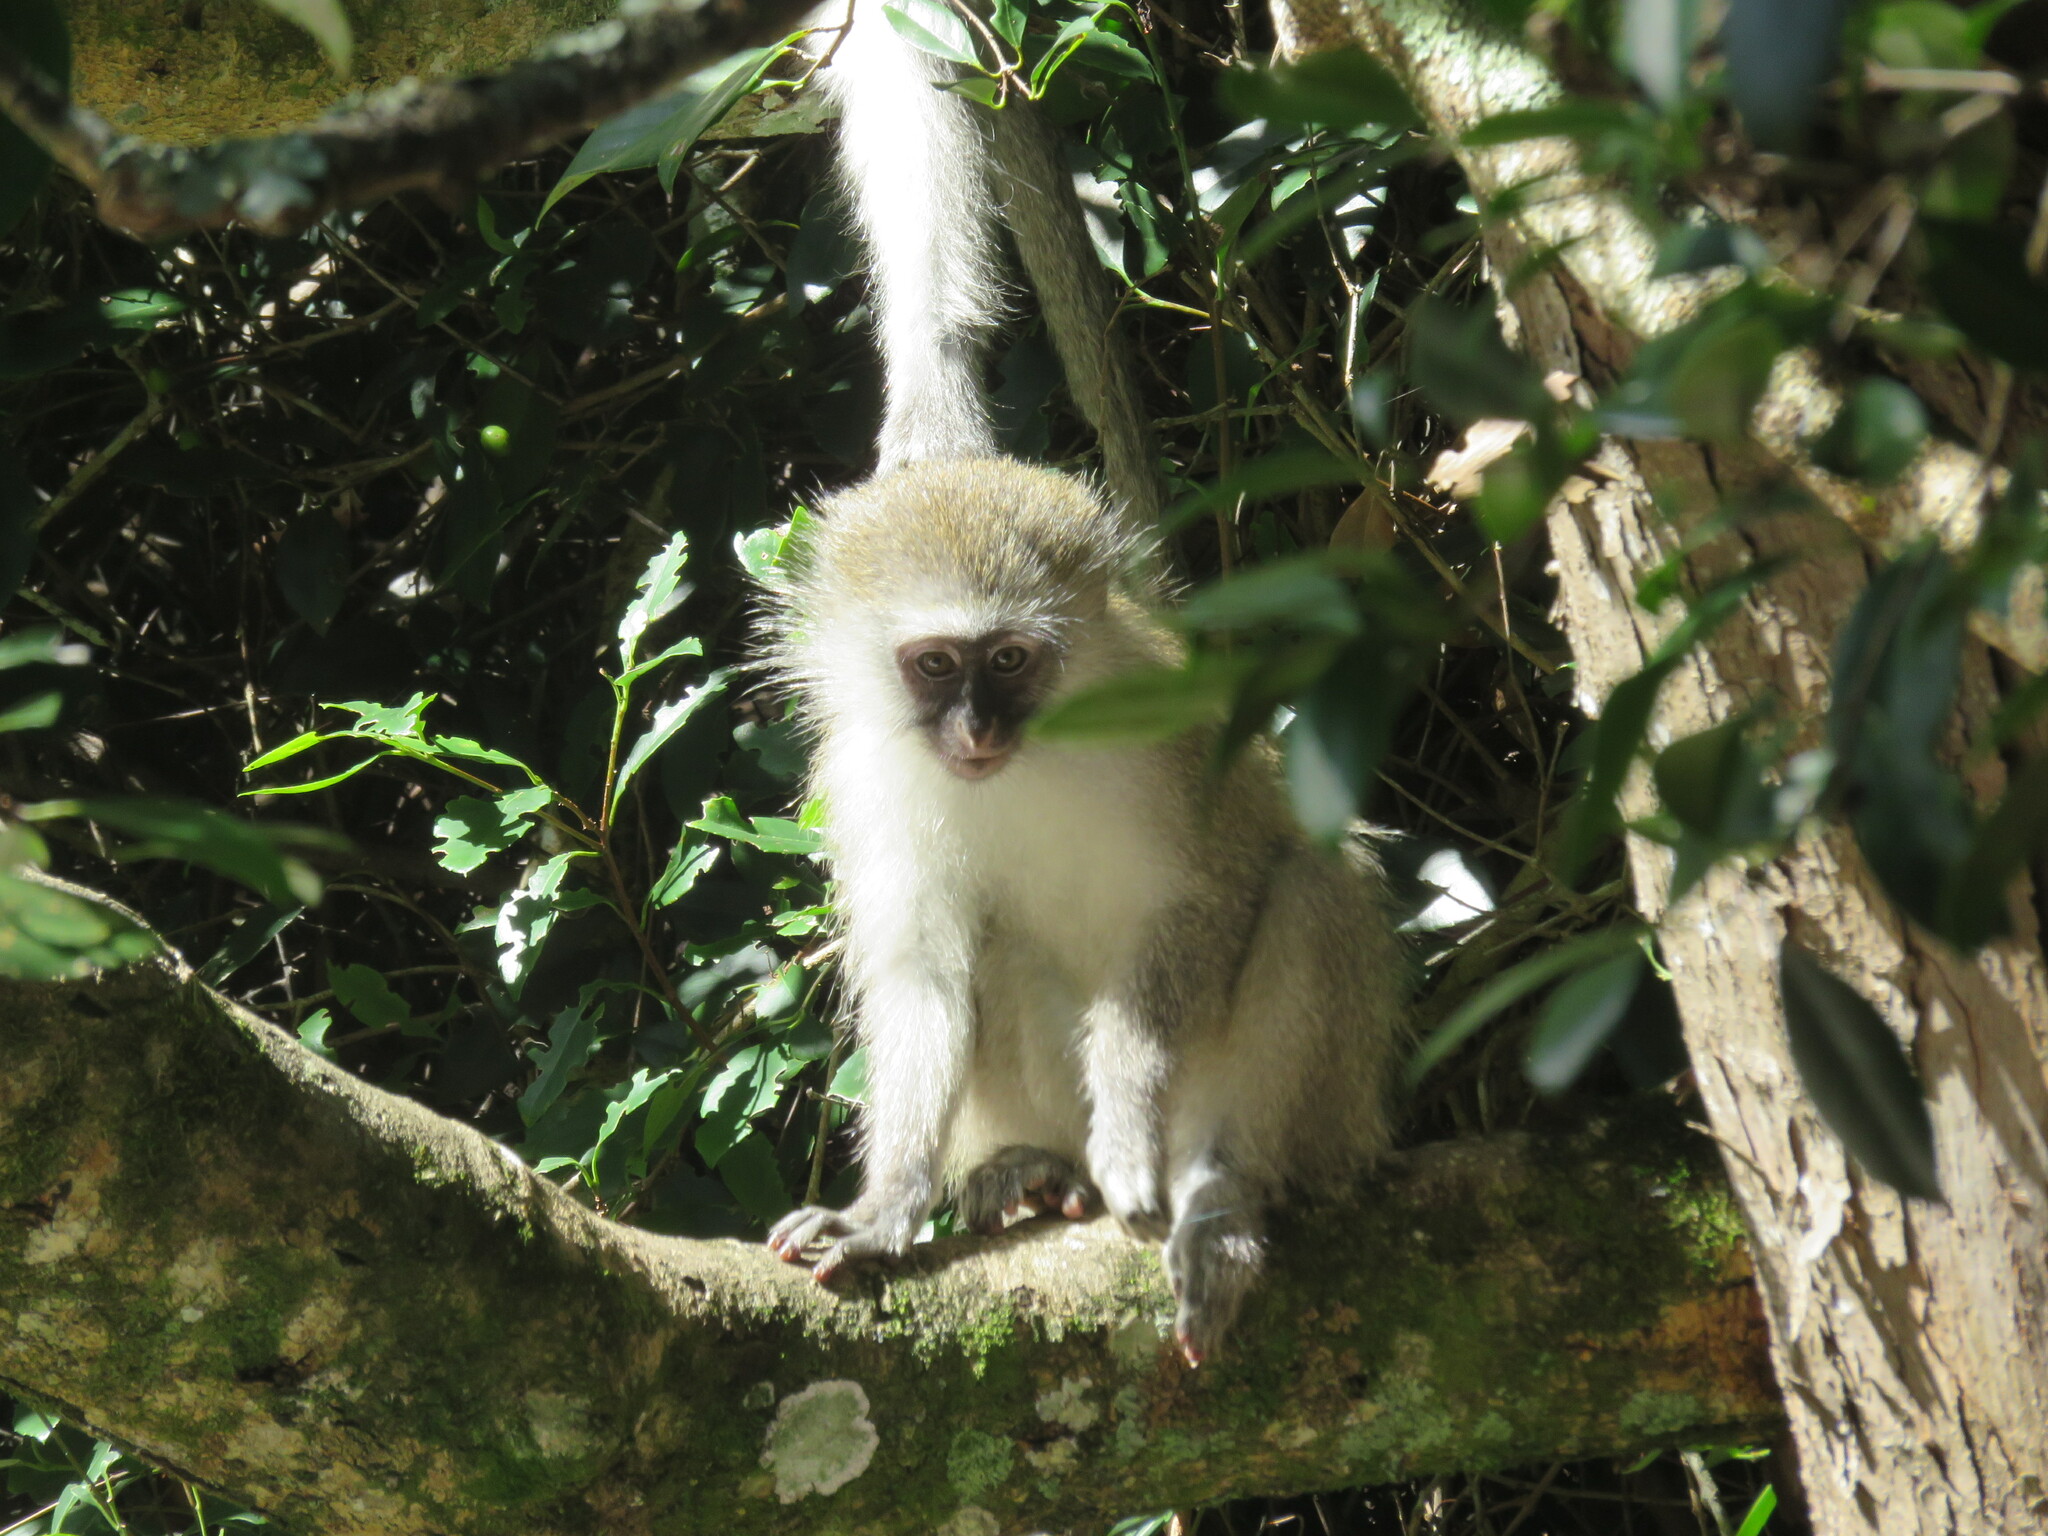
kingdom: Animalia
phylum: Chordata
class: Mammalia
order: Primates
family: Cercopithecidae
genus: Chlorocebus
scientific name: Chlorocebus pygerythrus
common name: Vervet monkey
